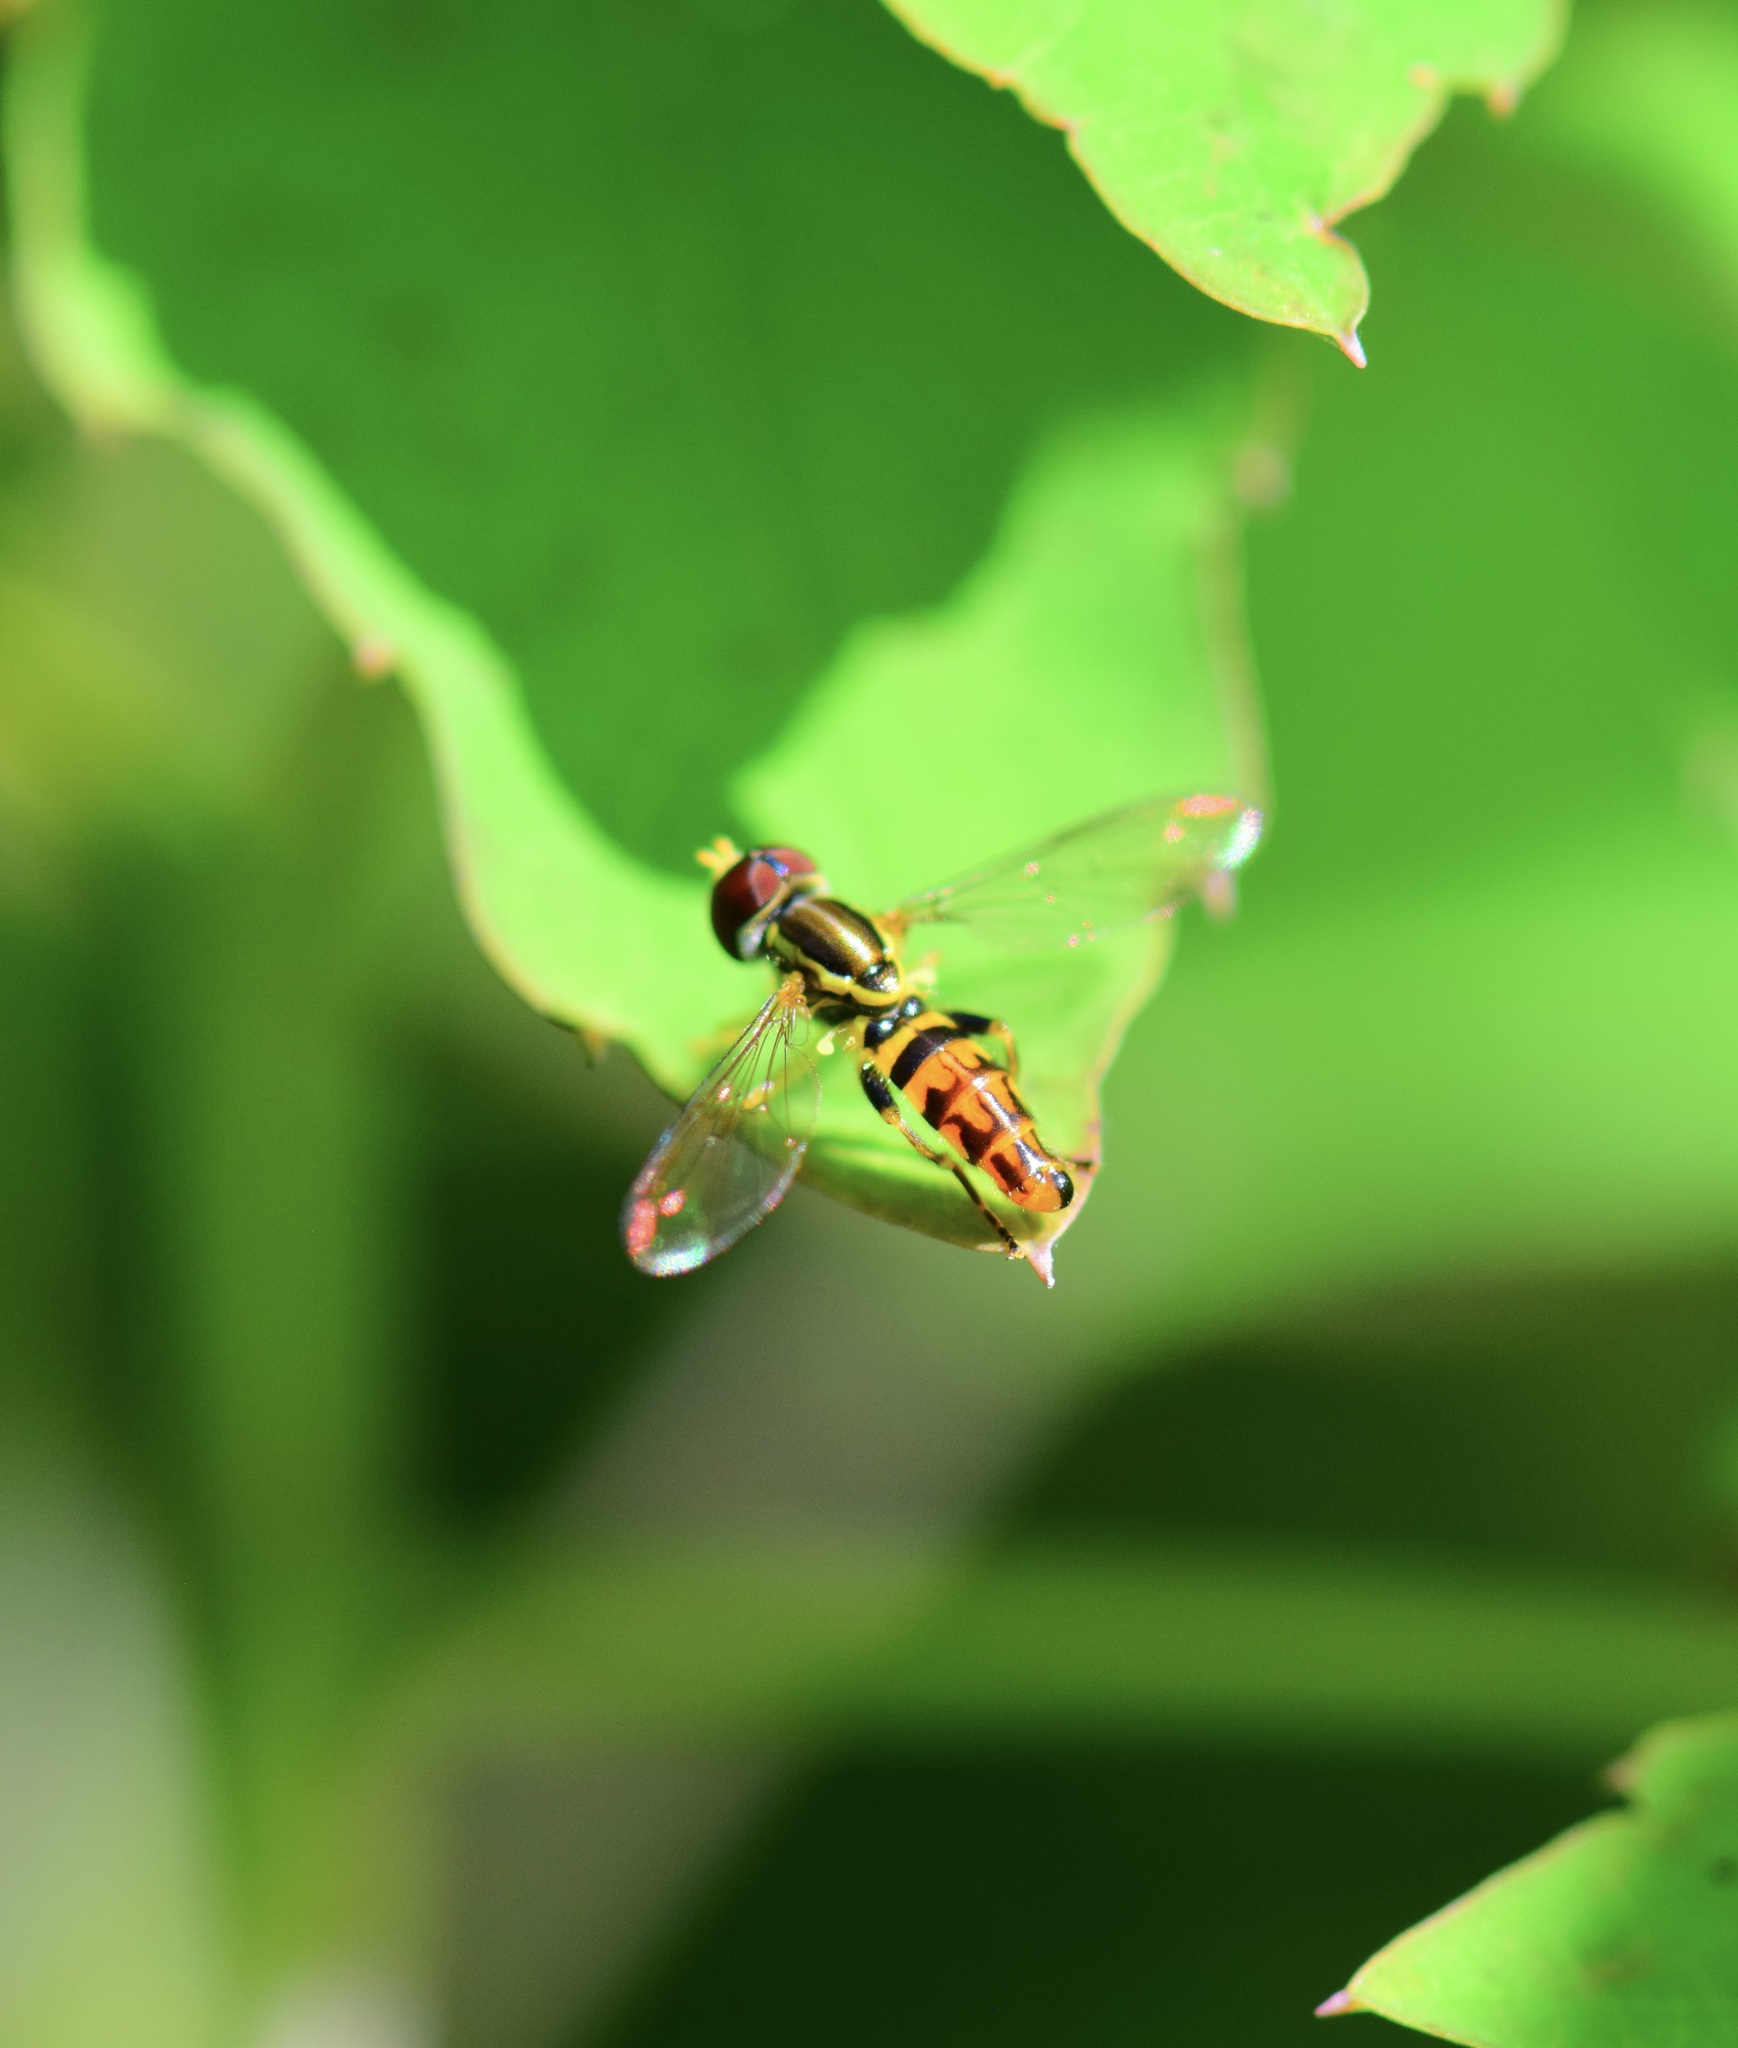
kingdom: Animalia
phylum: Arthropoda
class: Insecta
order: Diptera
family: Syrphidae
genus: Toxomerus
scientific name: Toxomerus geminatus
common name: Eastern calligrapher
